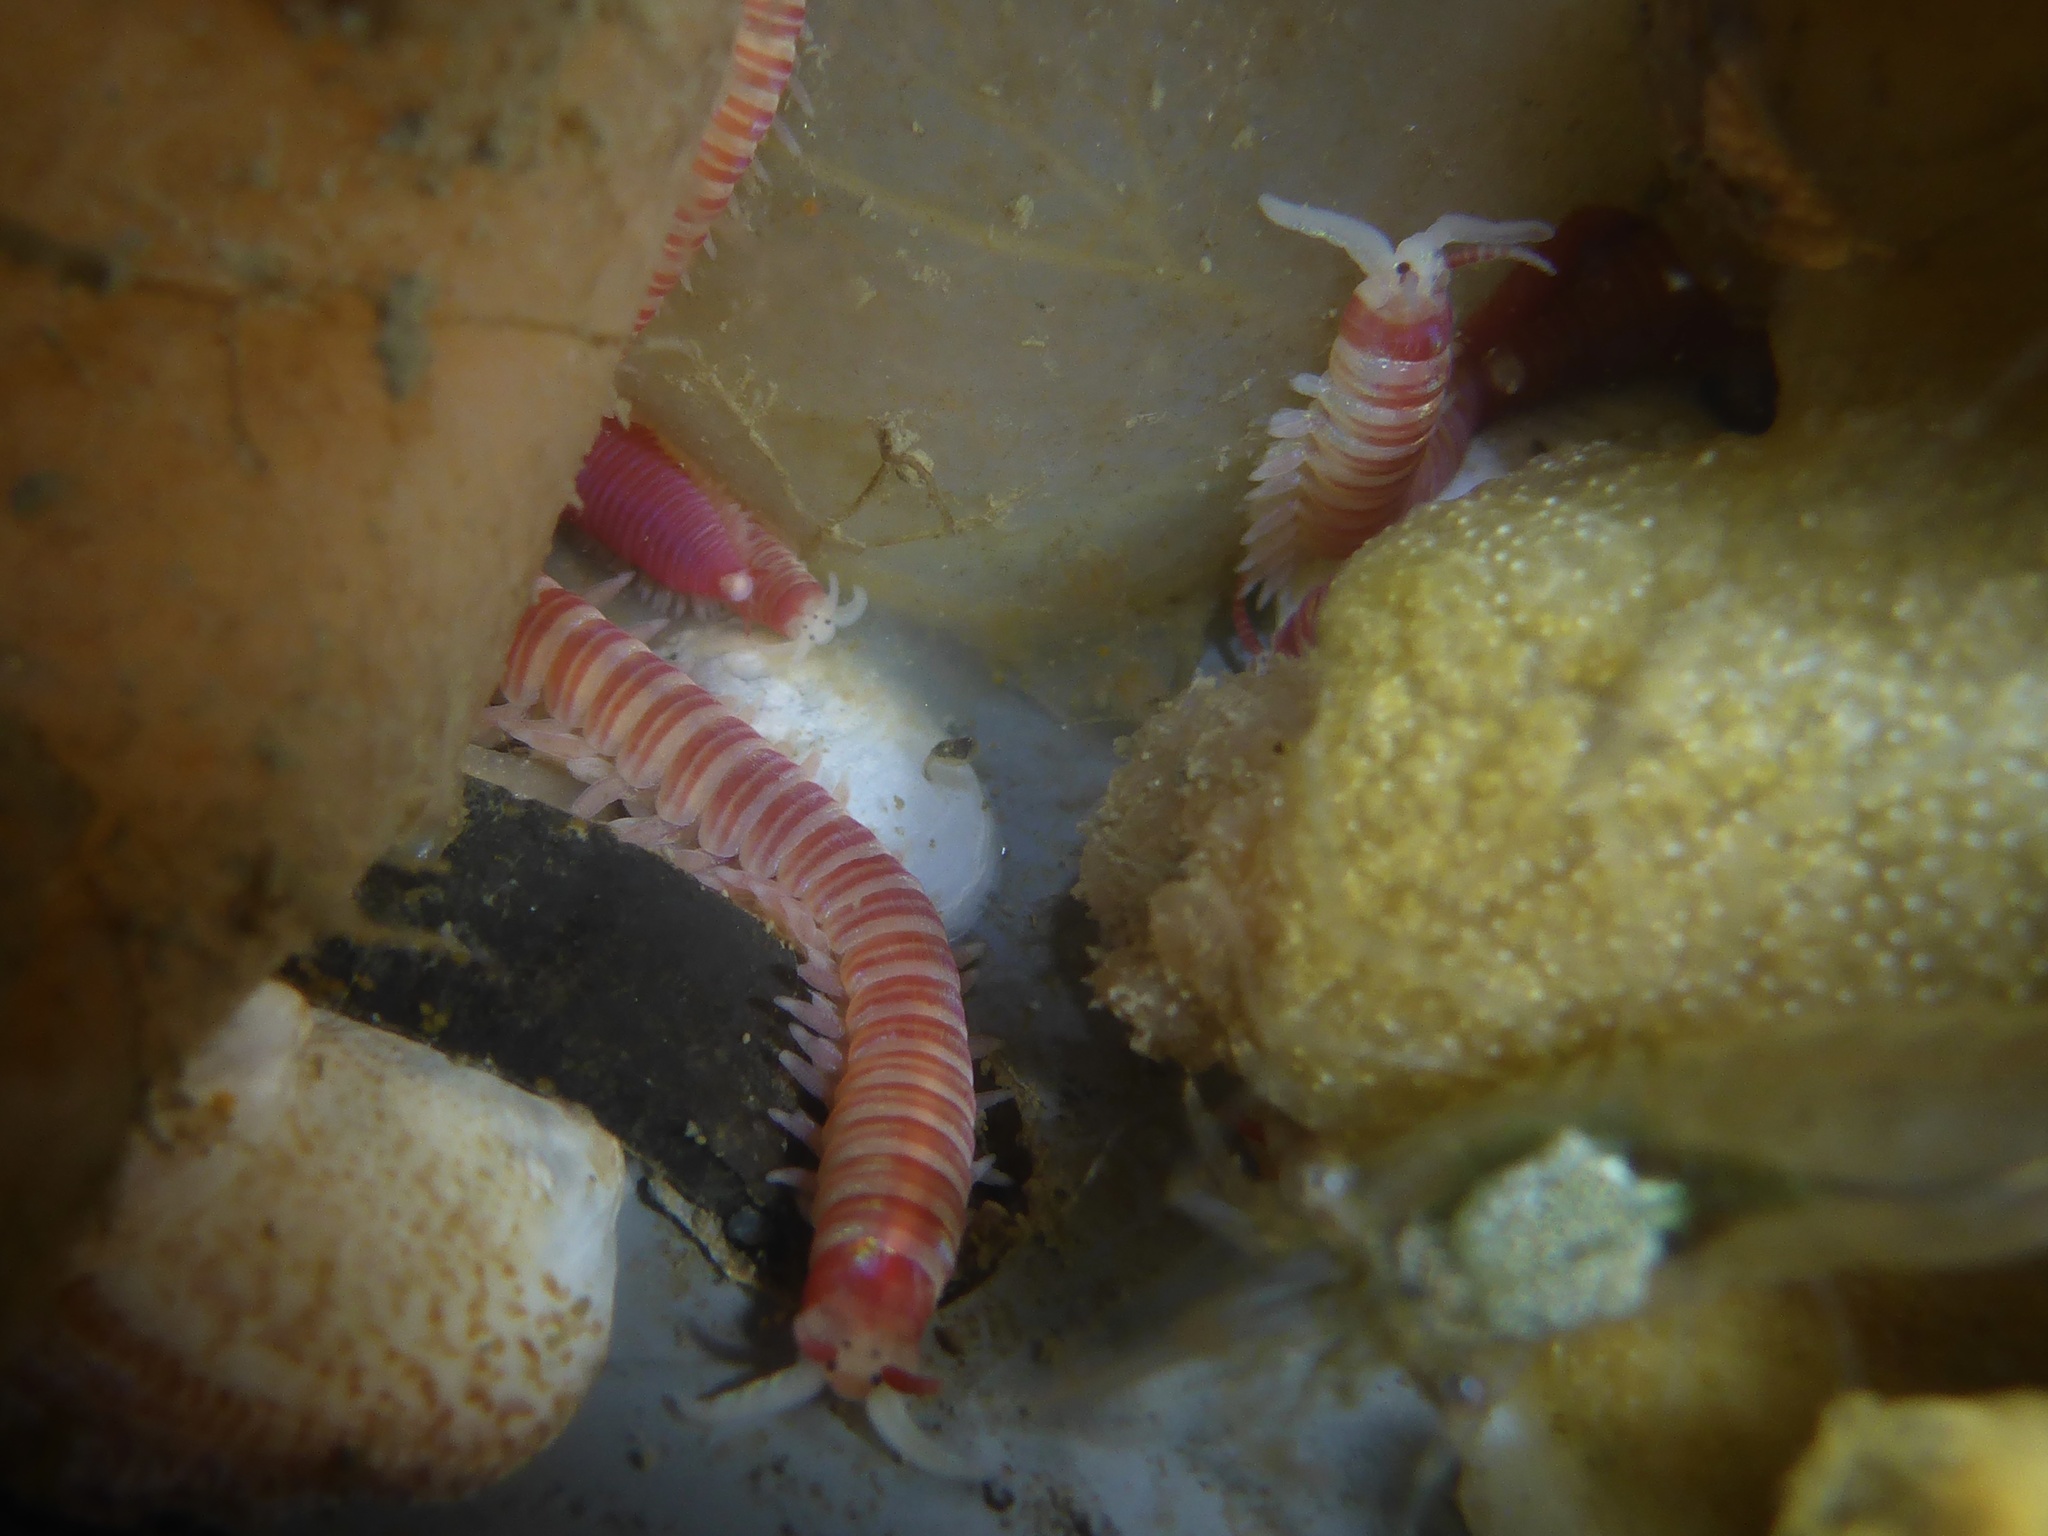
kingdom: Animalia
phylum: Annelida
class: Polychaeta
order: Eunicida
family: Dorvilleidae
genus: Dorvillea
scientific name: Dorvillea moniloceras
